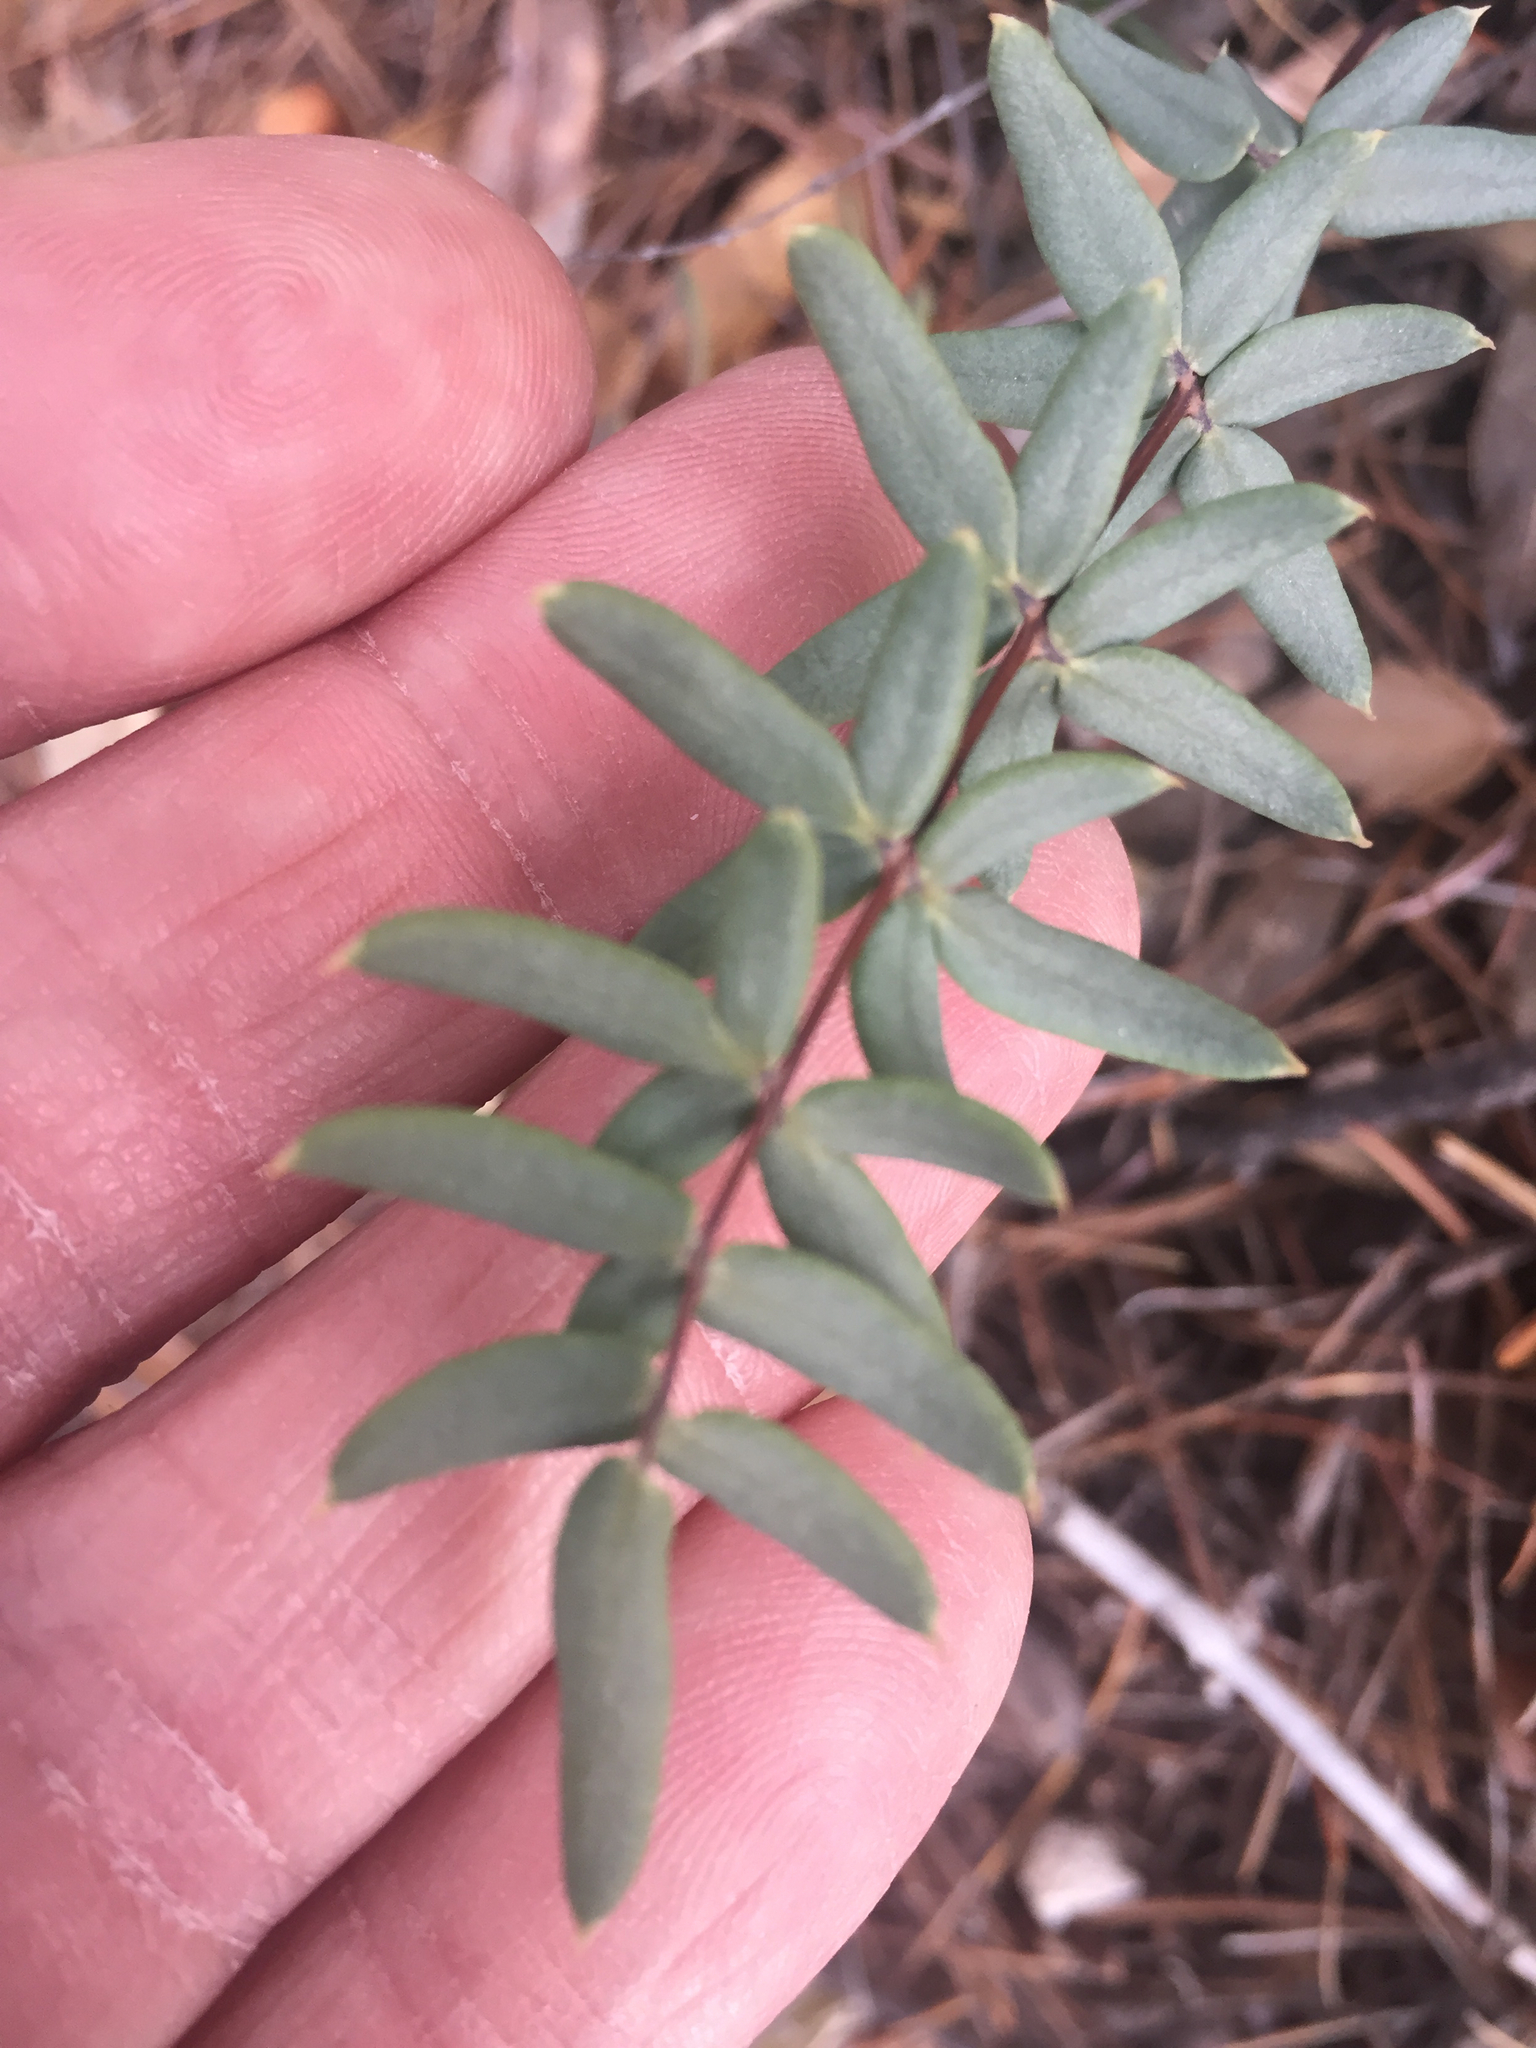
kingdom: Plantae
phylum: Tracheophyta
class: Polypodiopsida
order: Polypodiales
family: Pteridaceae
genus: Pellaea
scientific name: Pellaea wrightiana
